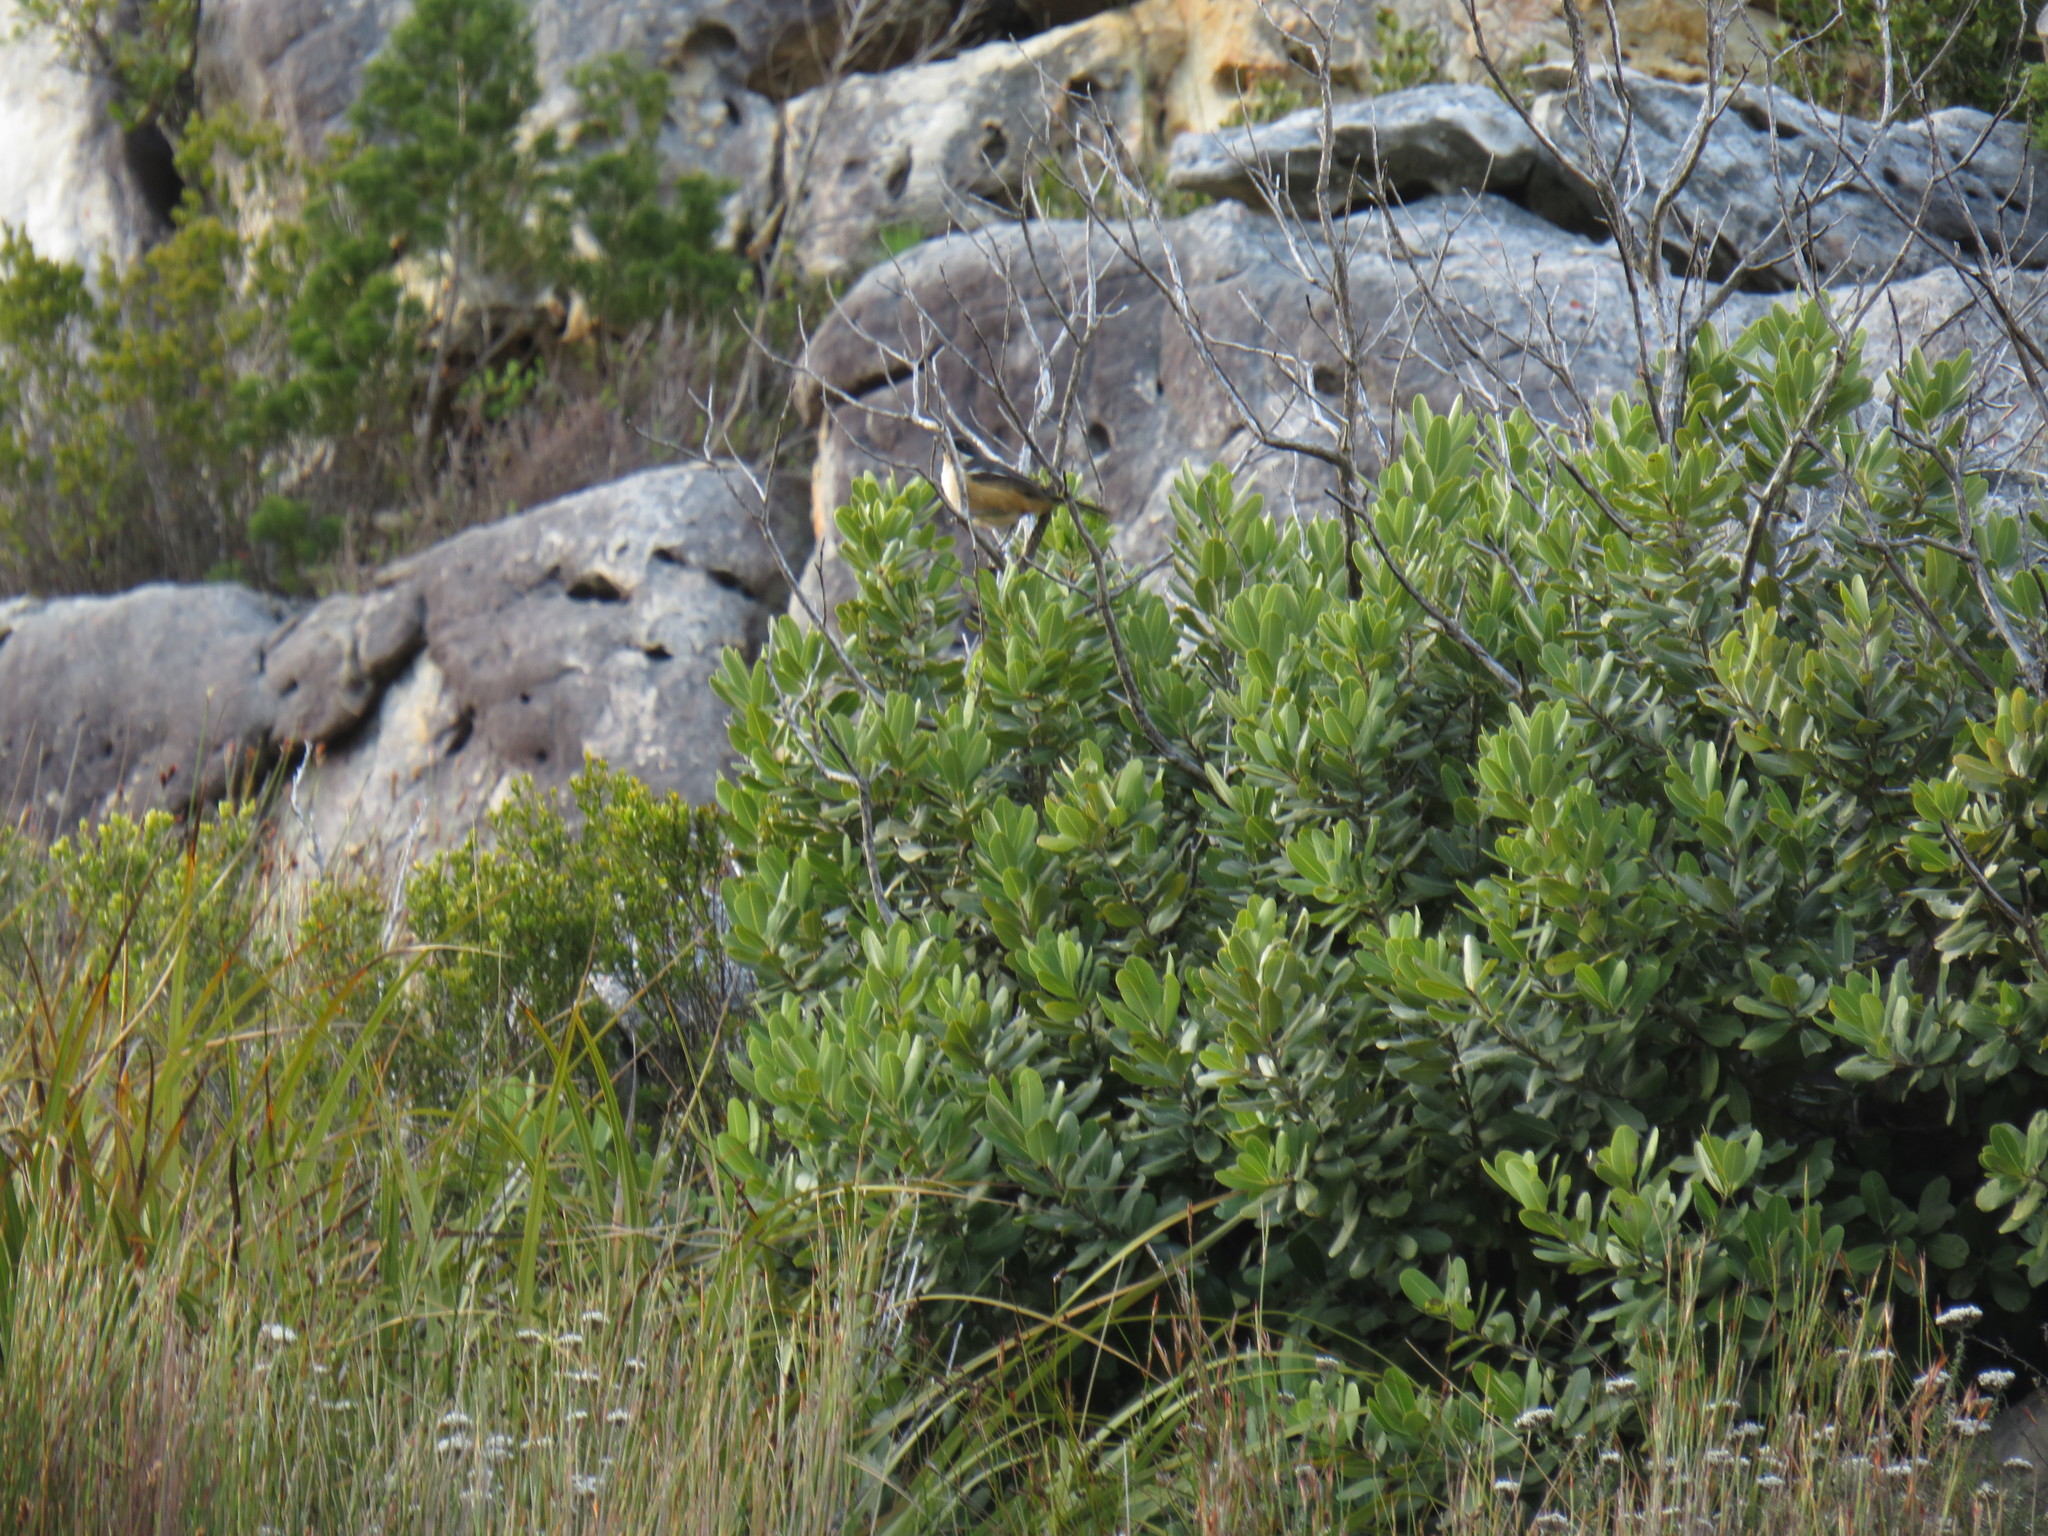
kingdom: Animalia
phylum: Chordata
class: Aves
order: Passeriformes
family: Malaconotidae
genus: Laniarius
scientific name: Laniarius ferrugineus
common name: Southern boubou
